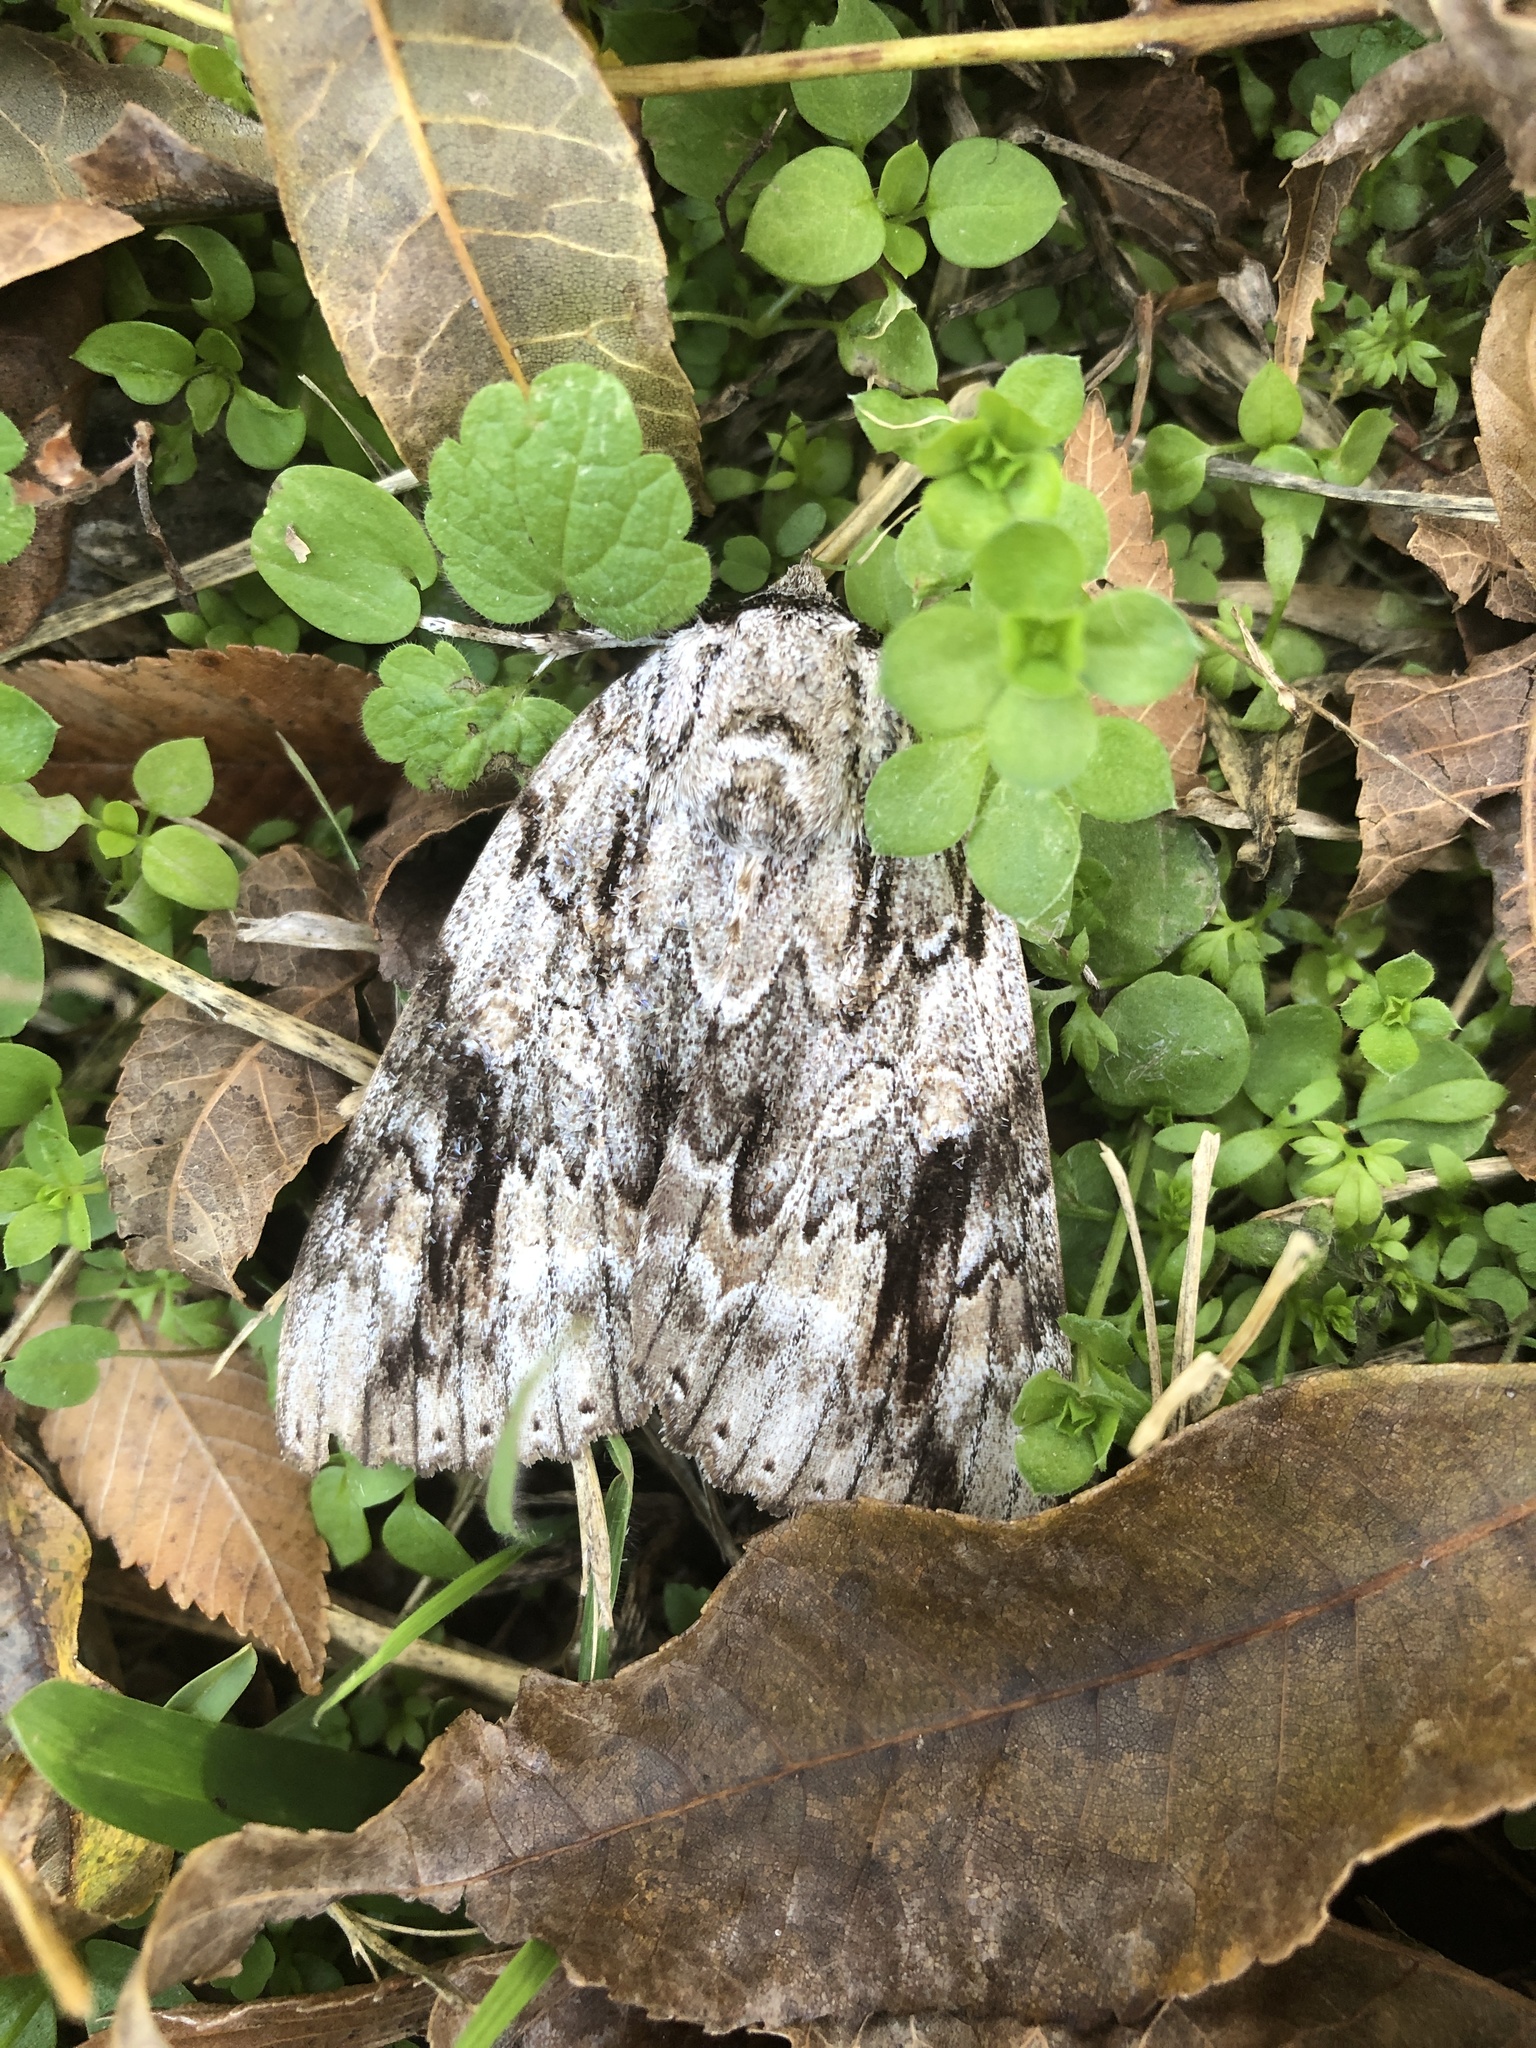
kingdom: Animalia
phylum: Arthropoda
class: Insecta
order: Lepidoptera
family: Erebidae
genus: Catocala
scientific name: Catocala maestosa
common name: Sad underwing
